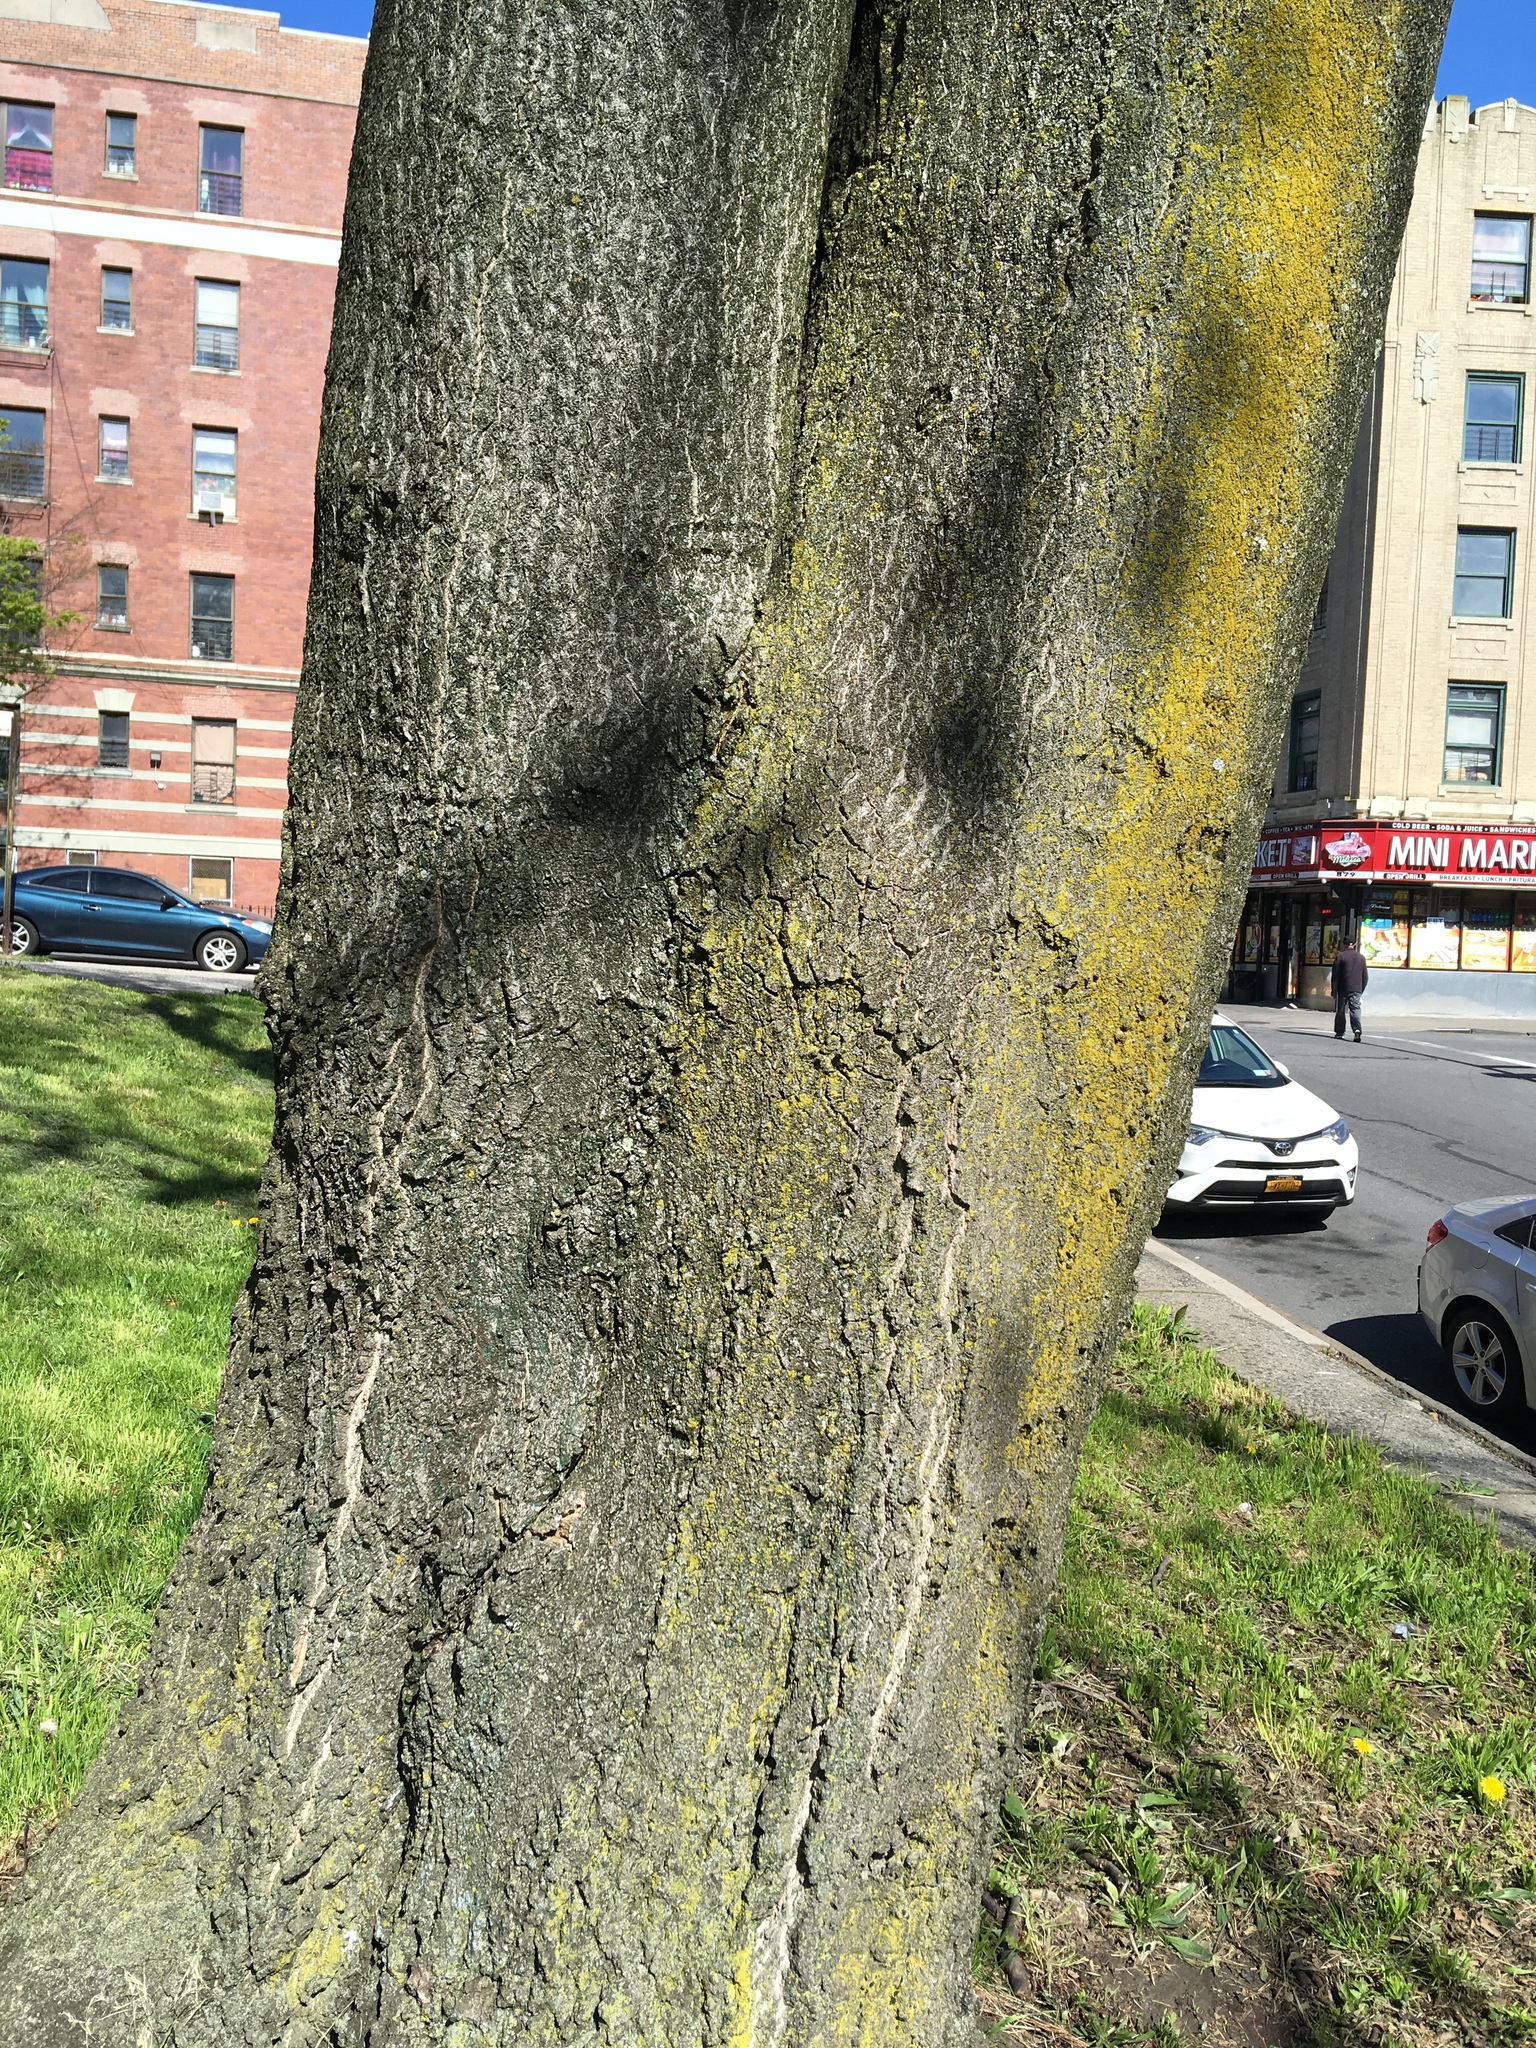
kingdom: Plantae
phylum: Tracheophyta
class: Magnoliopsida
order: Sapindales
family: Simaroubaceae
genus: Ailanthus
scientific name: Ailanthus altissima
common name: Tree-of-heaven
